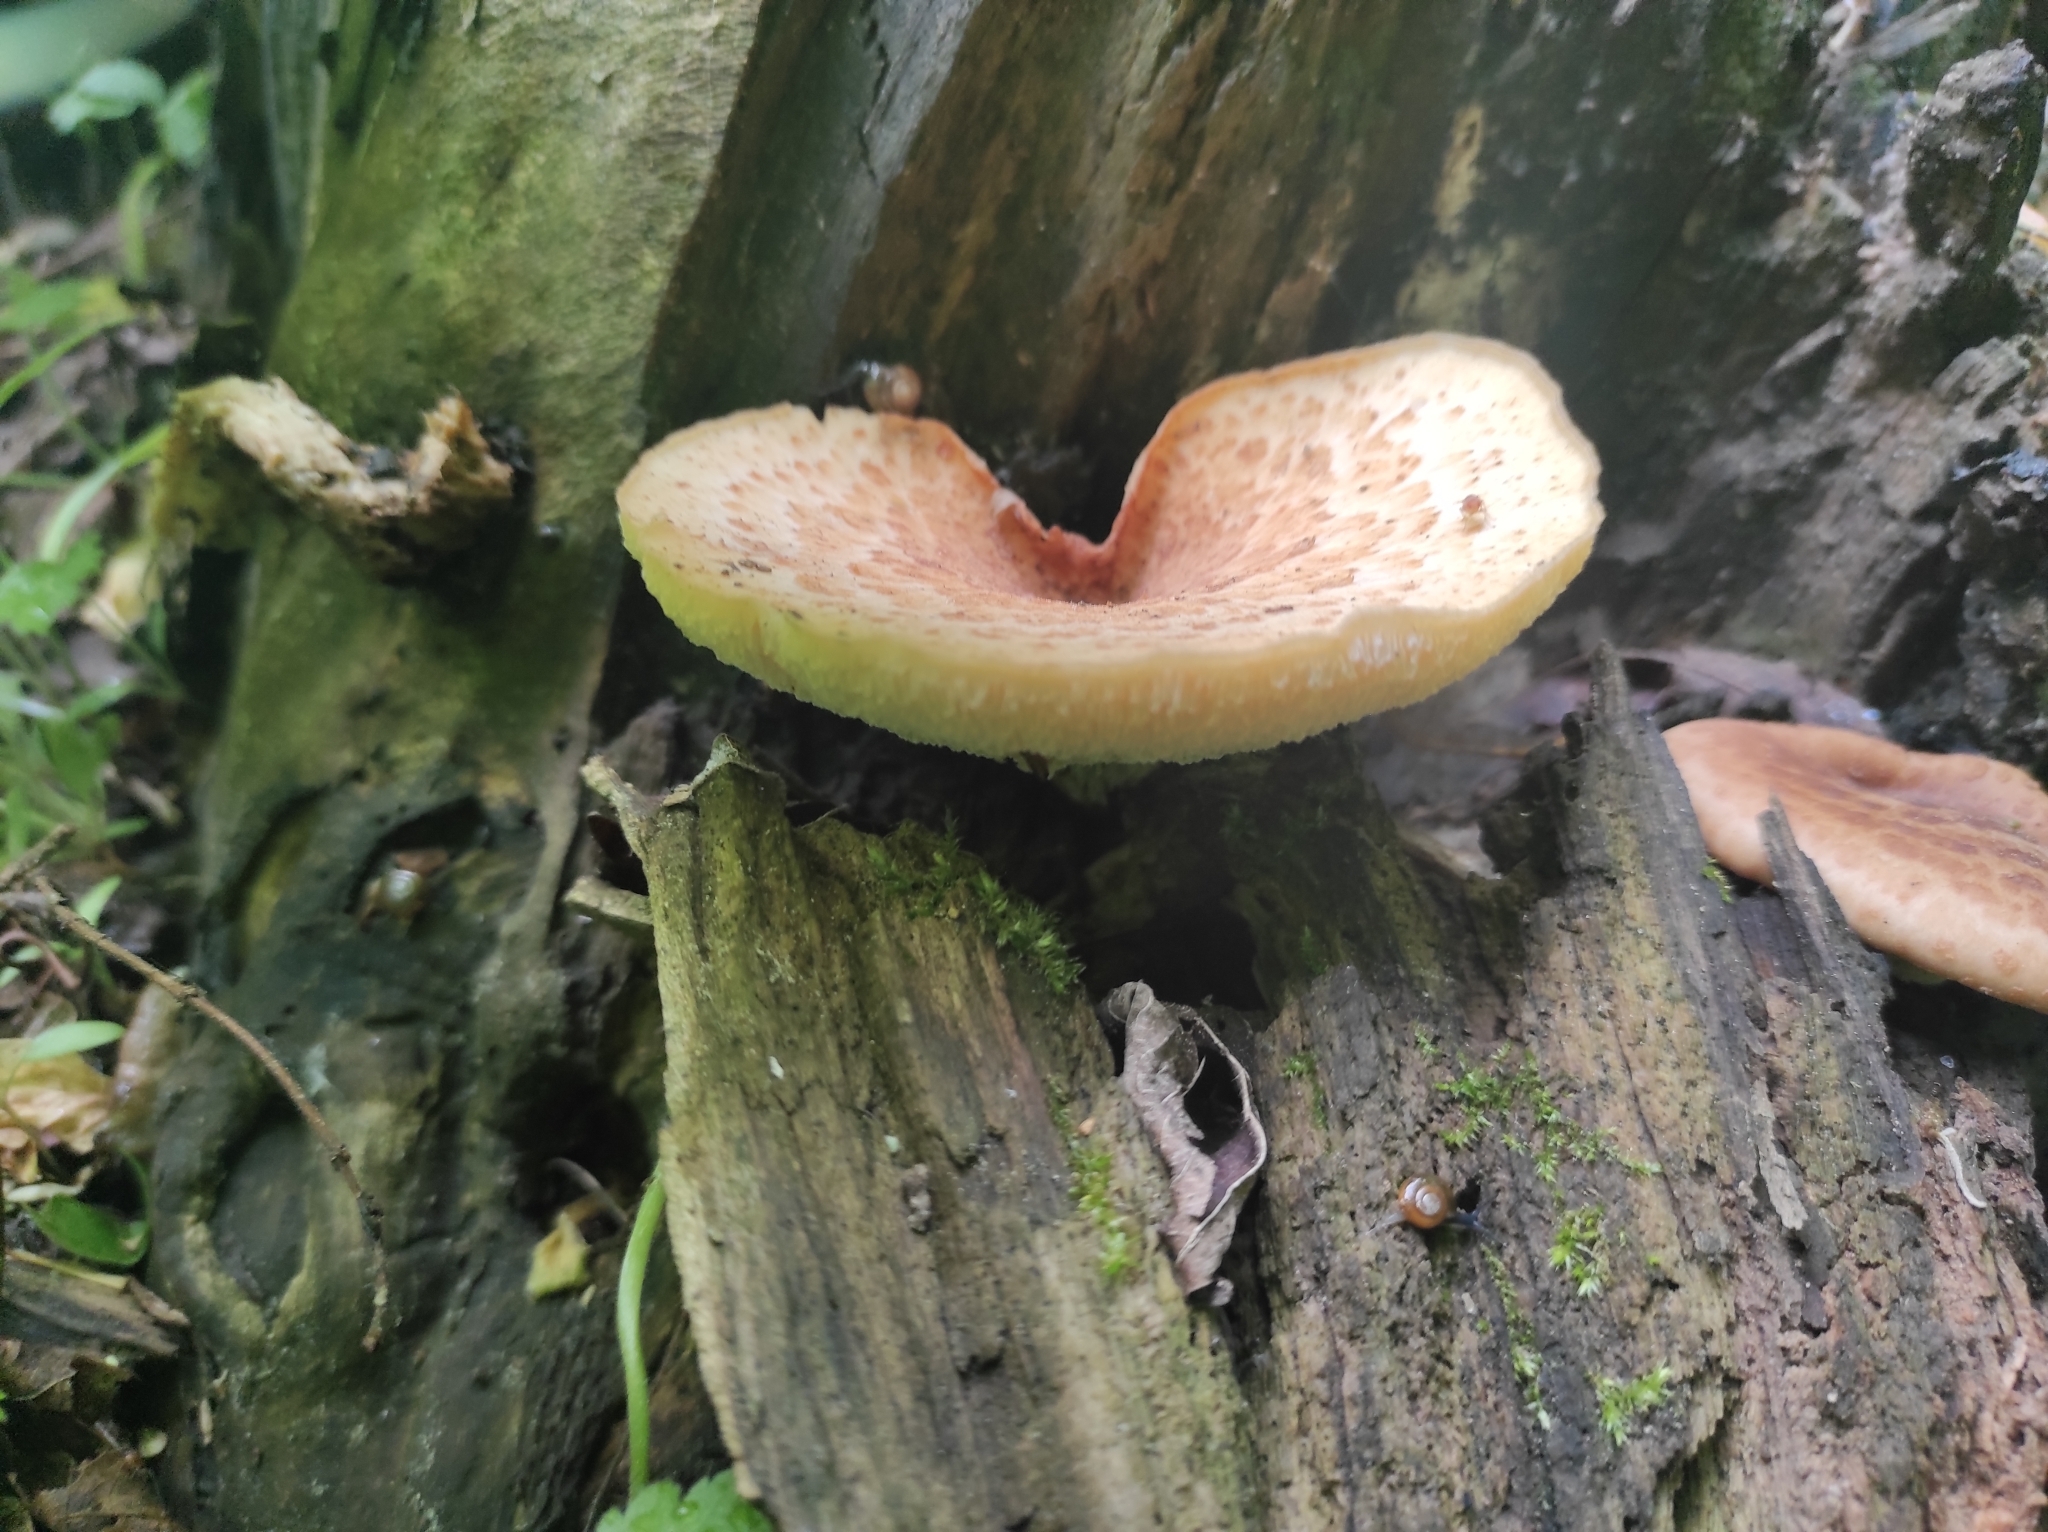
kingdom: Fungi
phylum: Basidiomycota
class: Agaricomycetes
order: Polyporales
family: Polyporaceae
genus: Cerioporus
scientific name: Cerioporus squamosus
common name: Dryad's saddle
